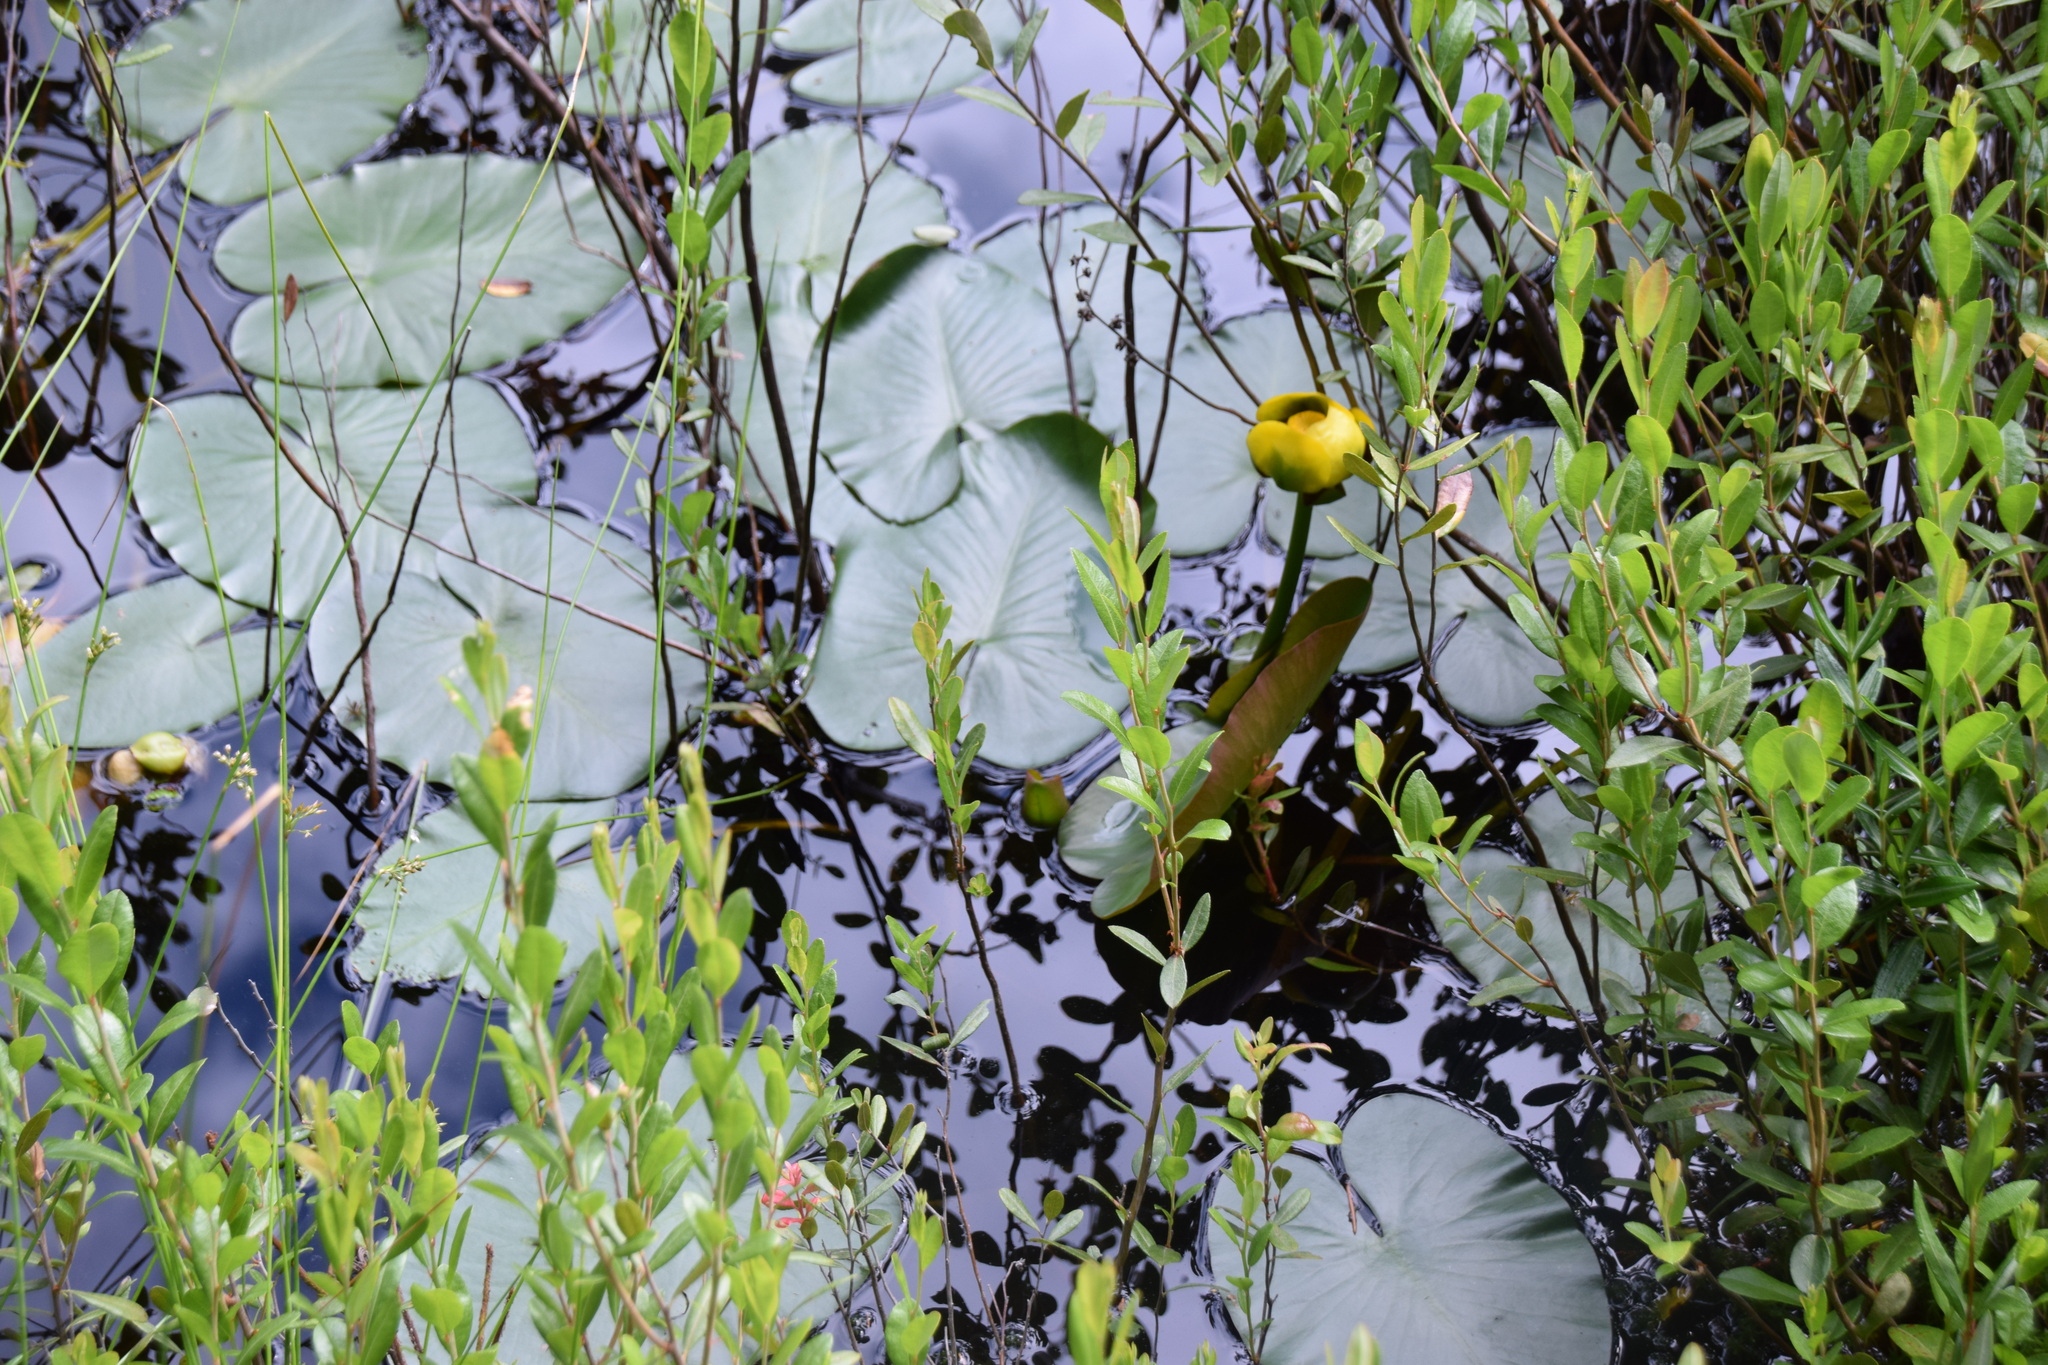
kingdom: Plantae
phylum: Tracheophyta
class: Magnoliopsida
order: Nymphaeales
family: Nymphaeaceae
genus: Nuphar
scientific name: Nuphar variegata
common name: Beaver-root
